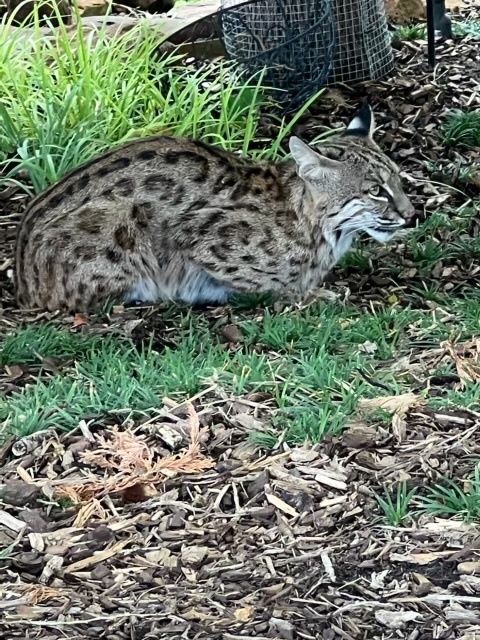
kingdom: Animalia
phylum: Chordata
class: Mammalia
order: Carnivora
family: Felidae
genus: Lynx
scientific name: Lynx rufus
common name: Bobcat
